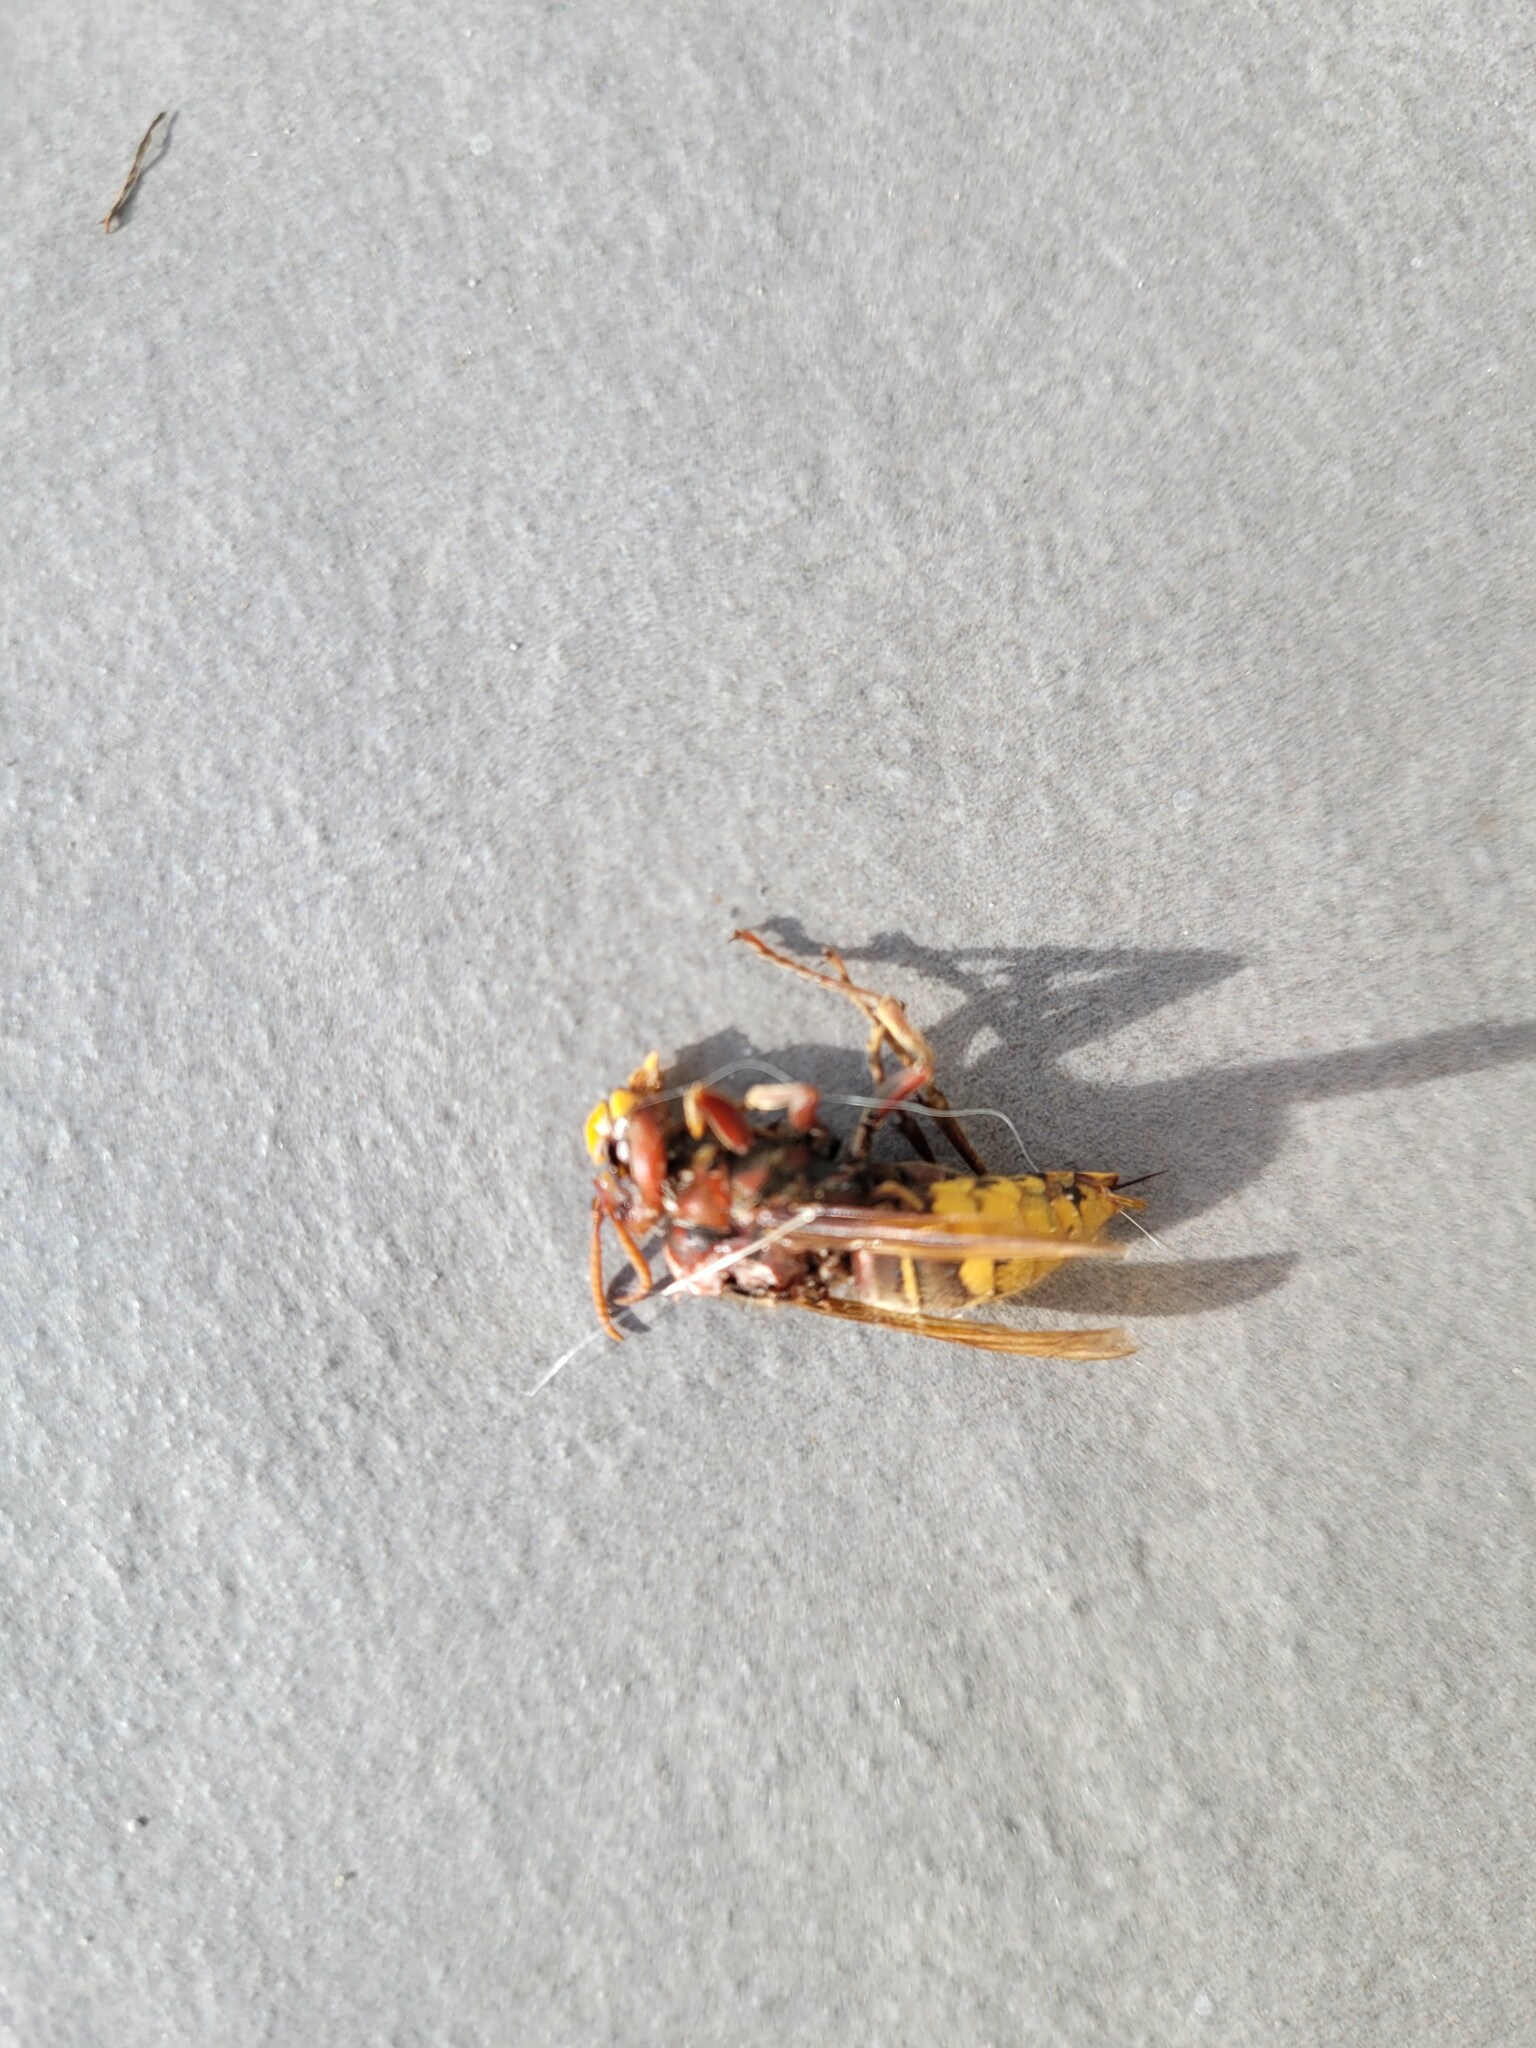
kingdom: Animalia
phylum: Arthropoda
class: Insecta
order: Hymenoptera
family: Vespidae
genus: Vespa
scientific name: Vespa crabro
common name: Hornet
